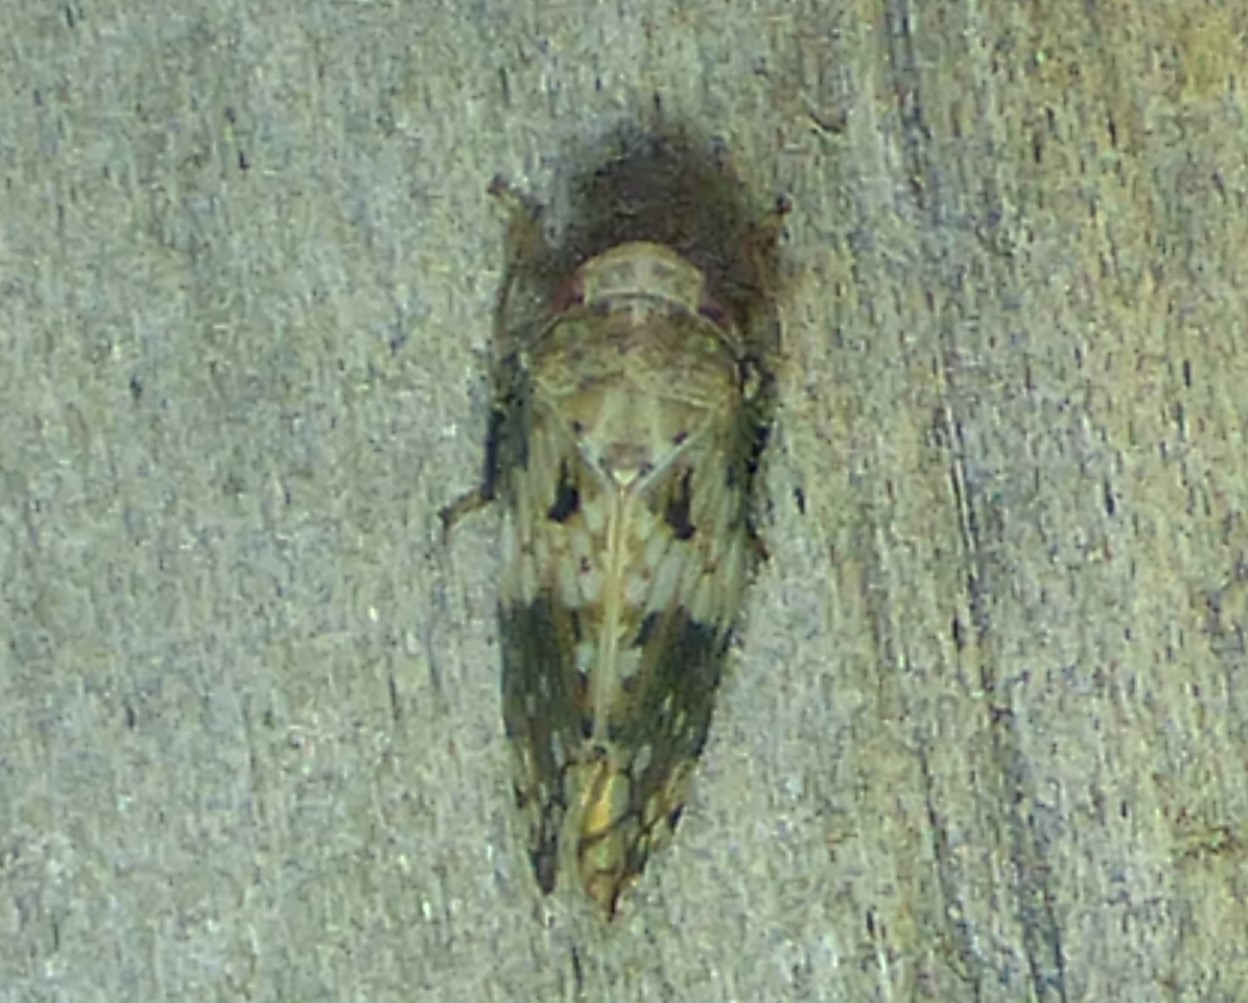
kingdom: Animalia
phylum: Arthropoda
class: Insecta
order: Hemiptera
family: Cicadellidae
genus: Menosoma
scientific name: Menosoma cinctum
